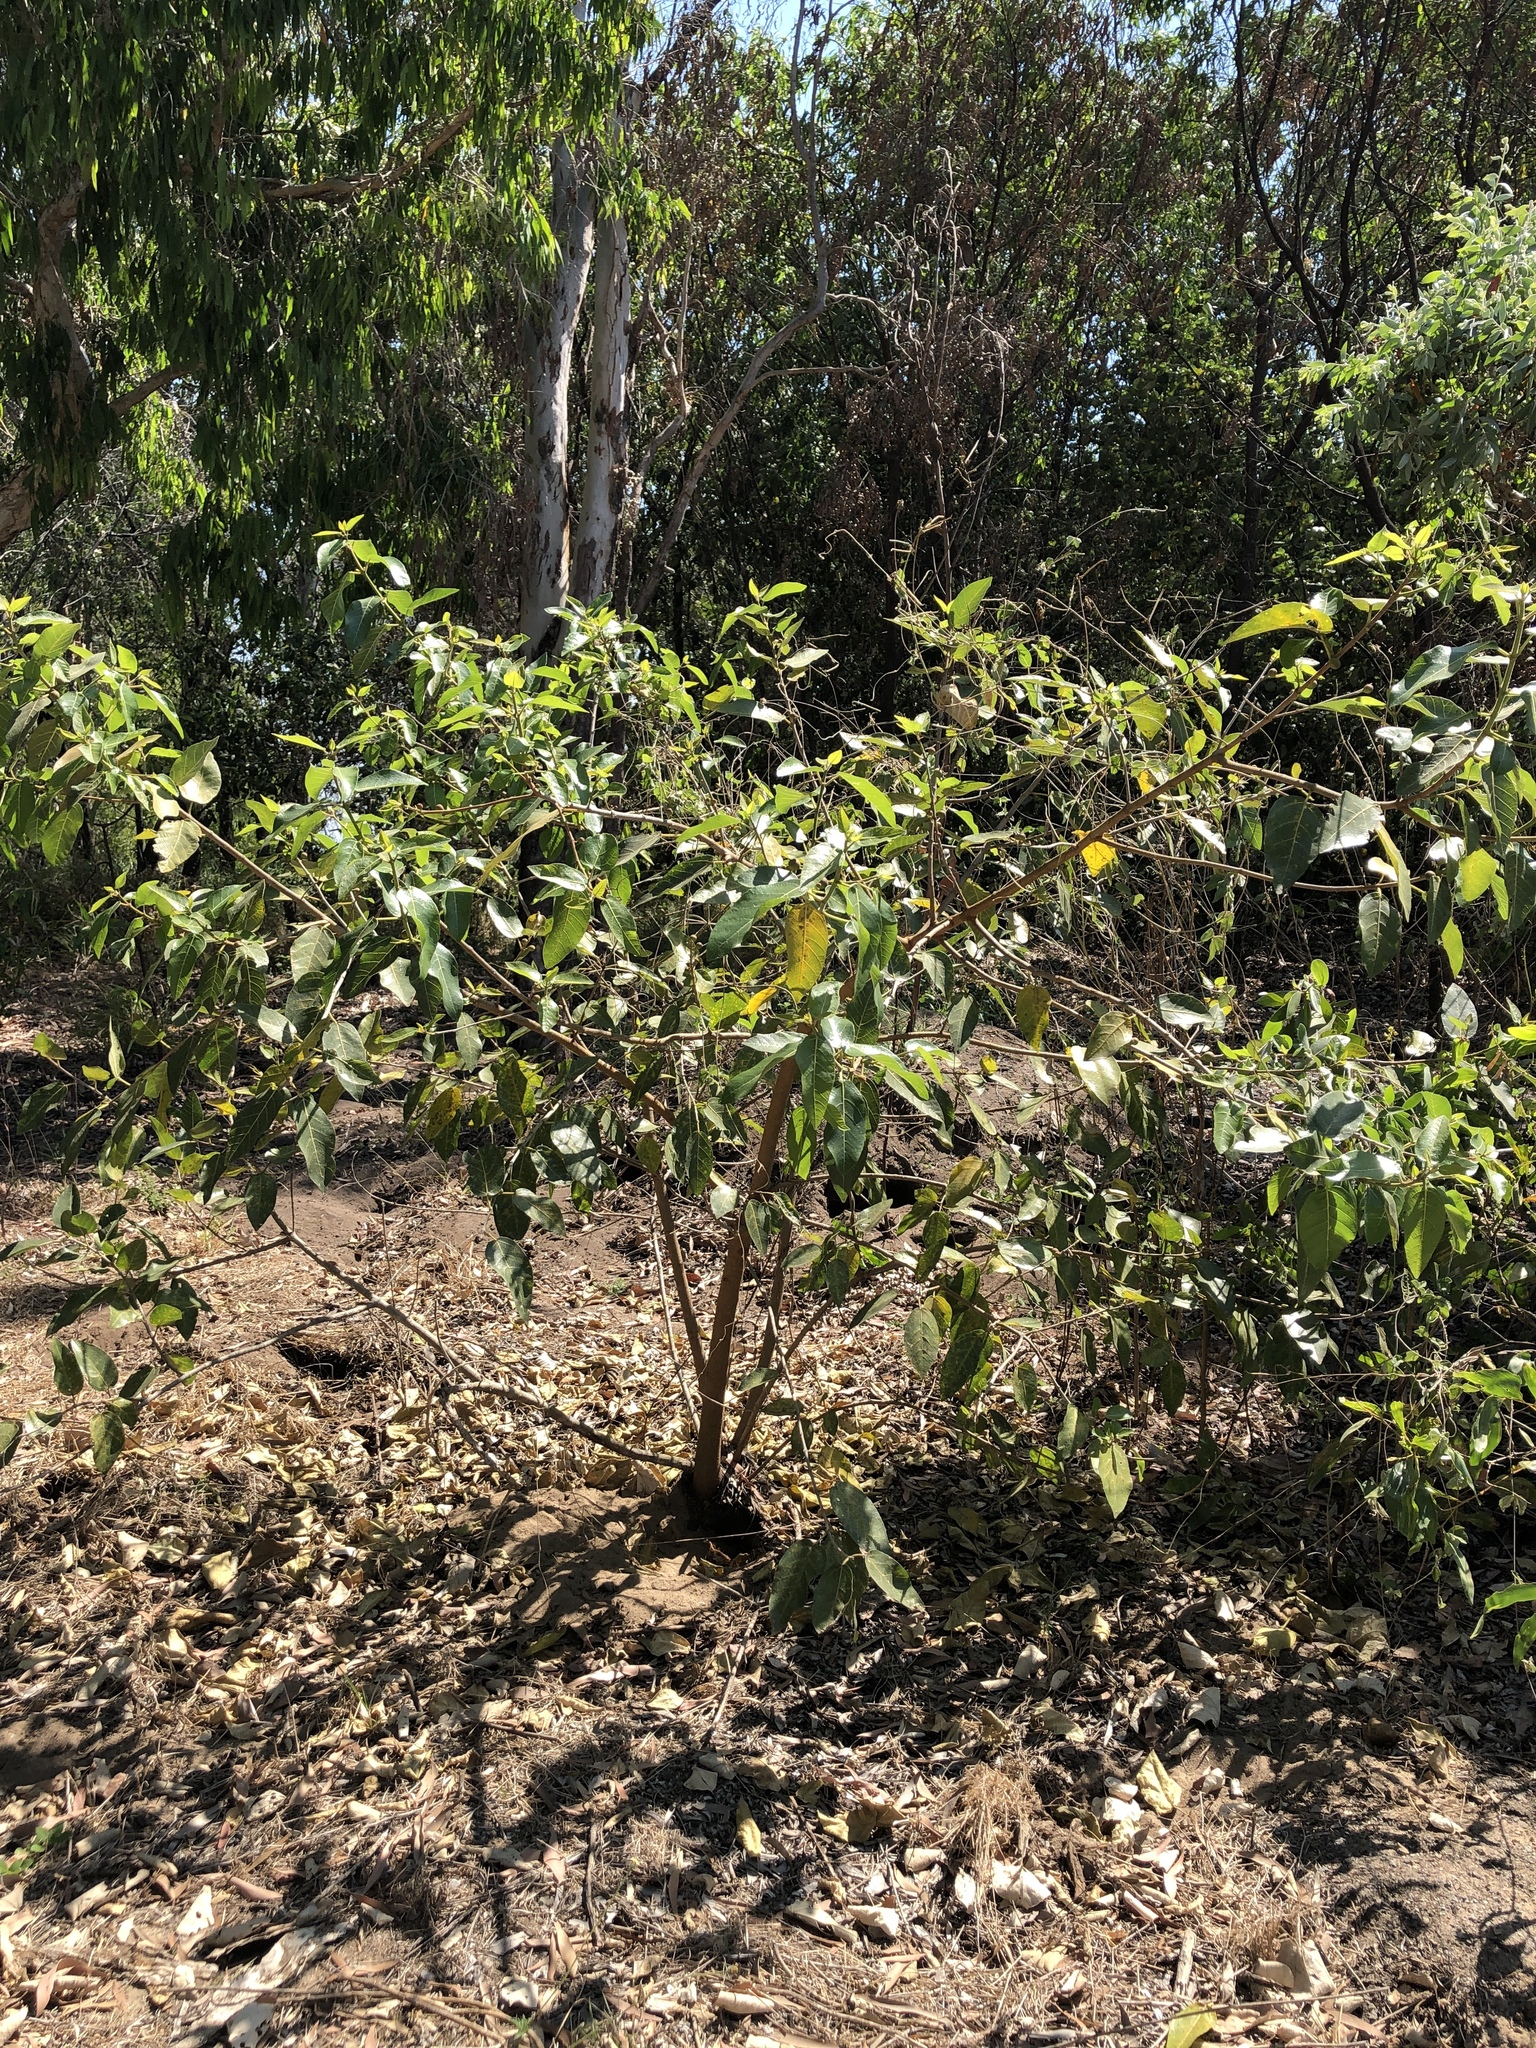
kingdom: Plantae
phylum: Tracheophyta
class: Magnoliopsida
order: Rosales
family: Moraceae
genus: Ficus
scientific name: Ficus opposita
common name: Figwood
